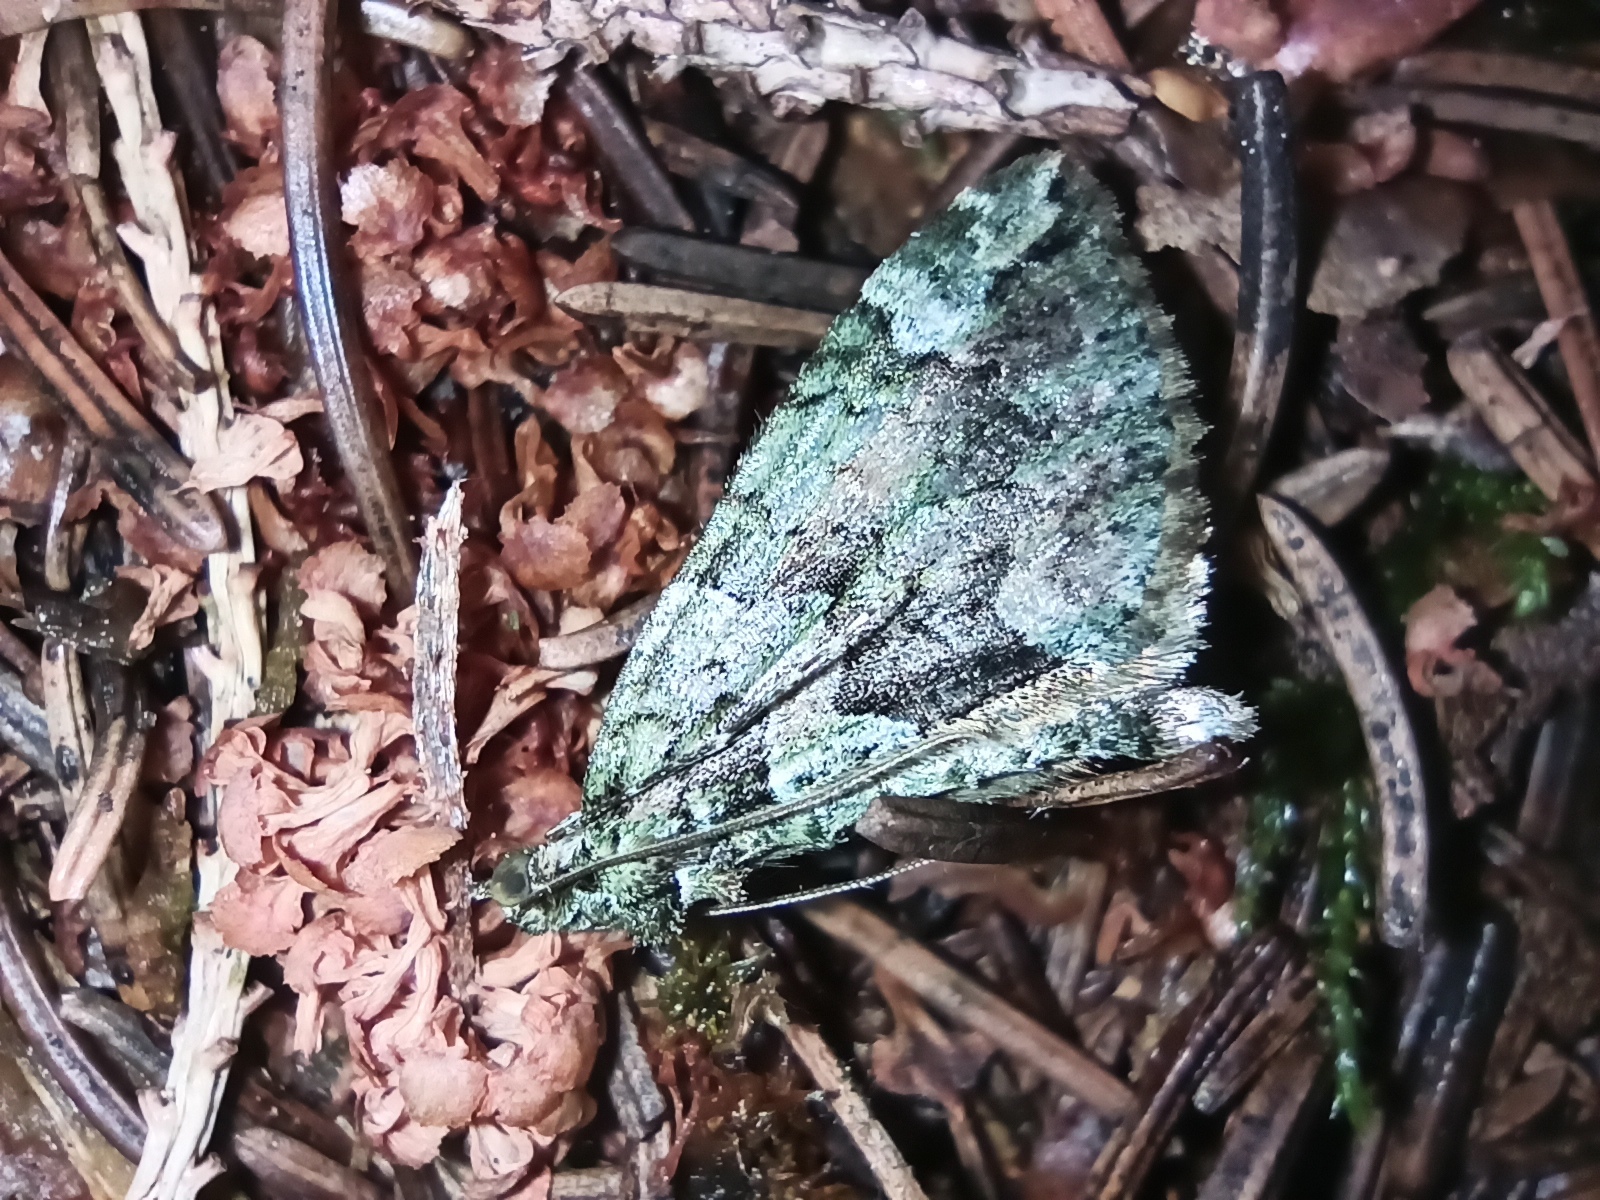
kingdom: Animalia
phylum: Arthropoda
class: Insecta
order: Lepidoptera
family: Geometridae
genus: Chloroclysta
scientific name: Chloroclysta siterata
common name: Red-green carpet
